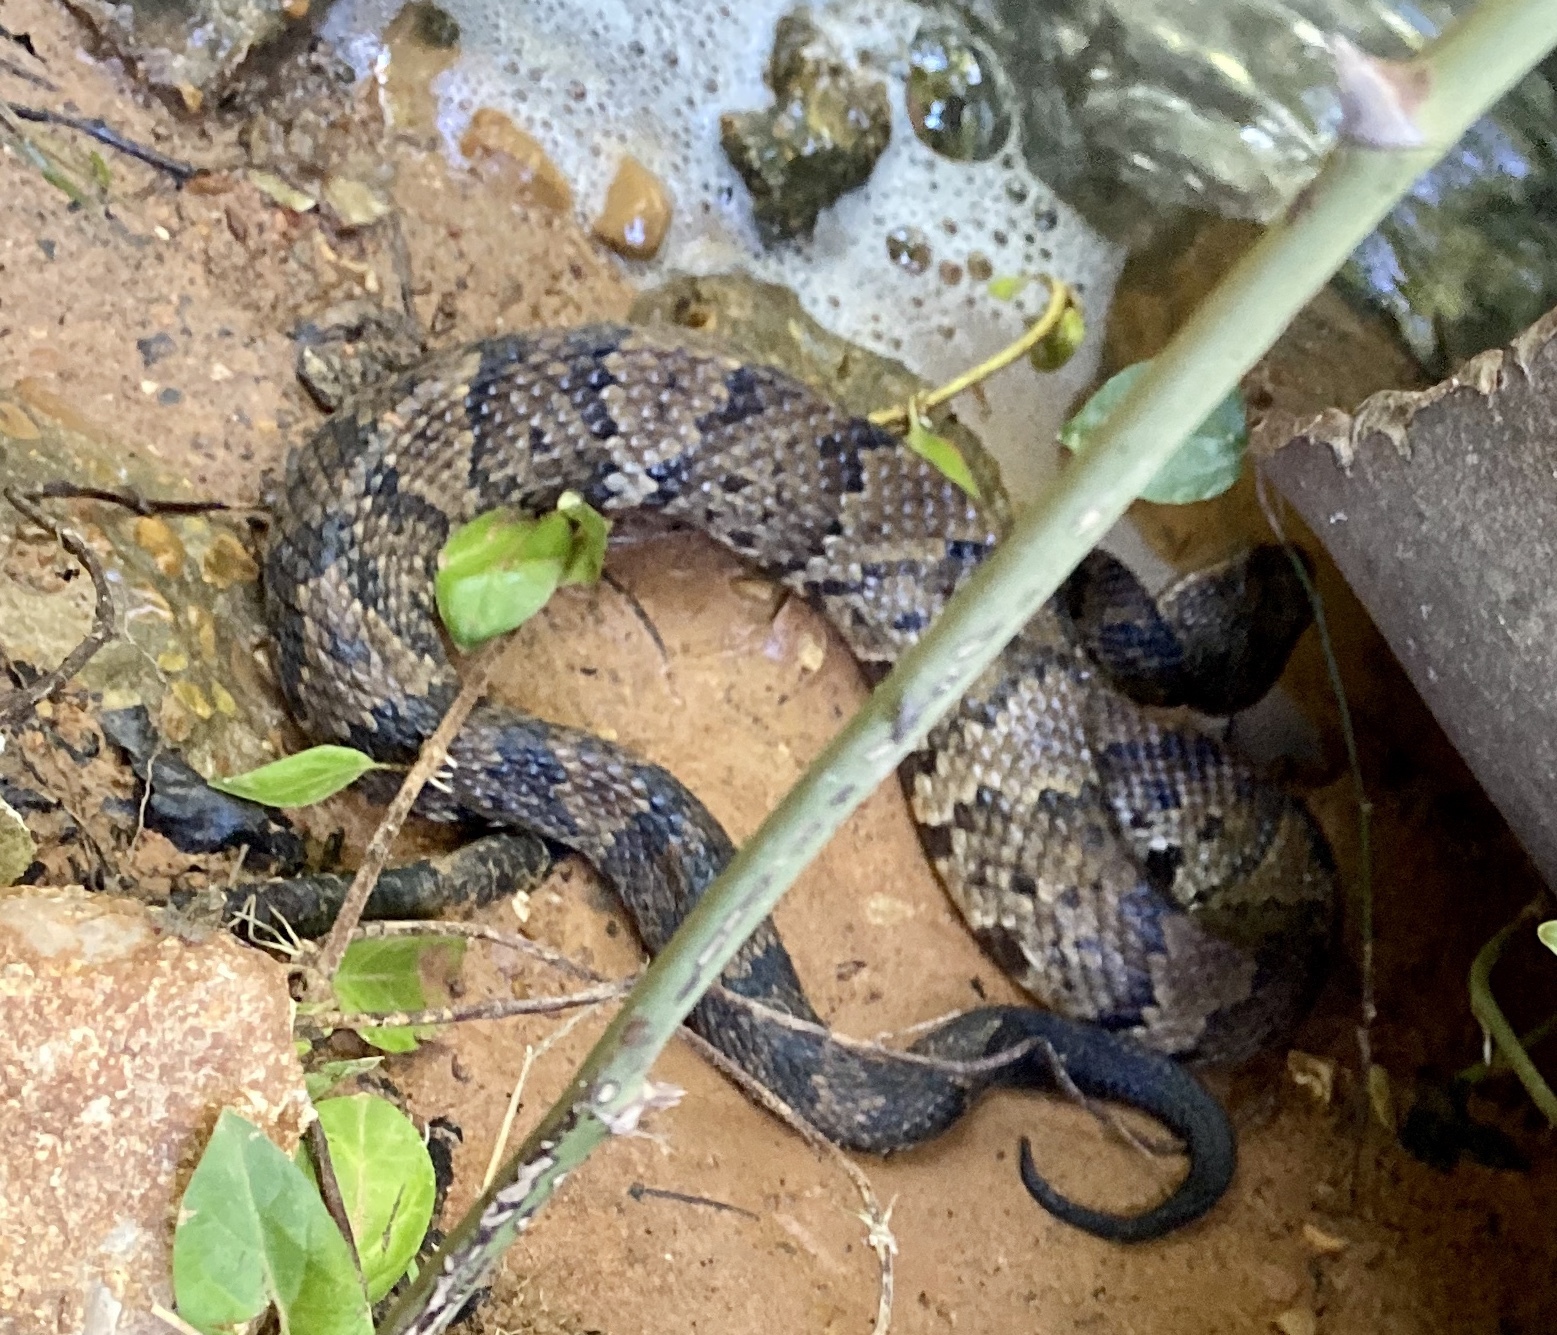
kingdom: Animalia
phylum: Chordata
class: Squamata
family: Viperidae
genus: Agkistrodon
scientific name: Agkistrodon piscivorus
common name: Cottonmouth
